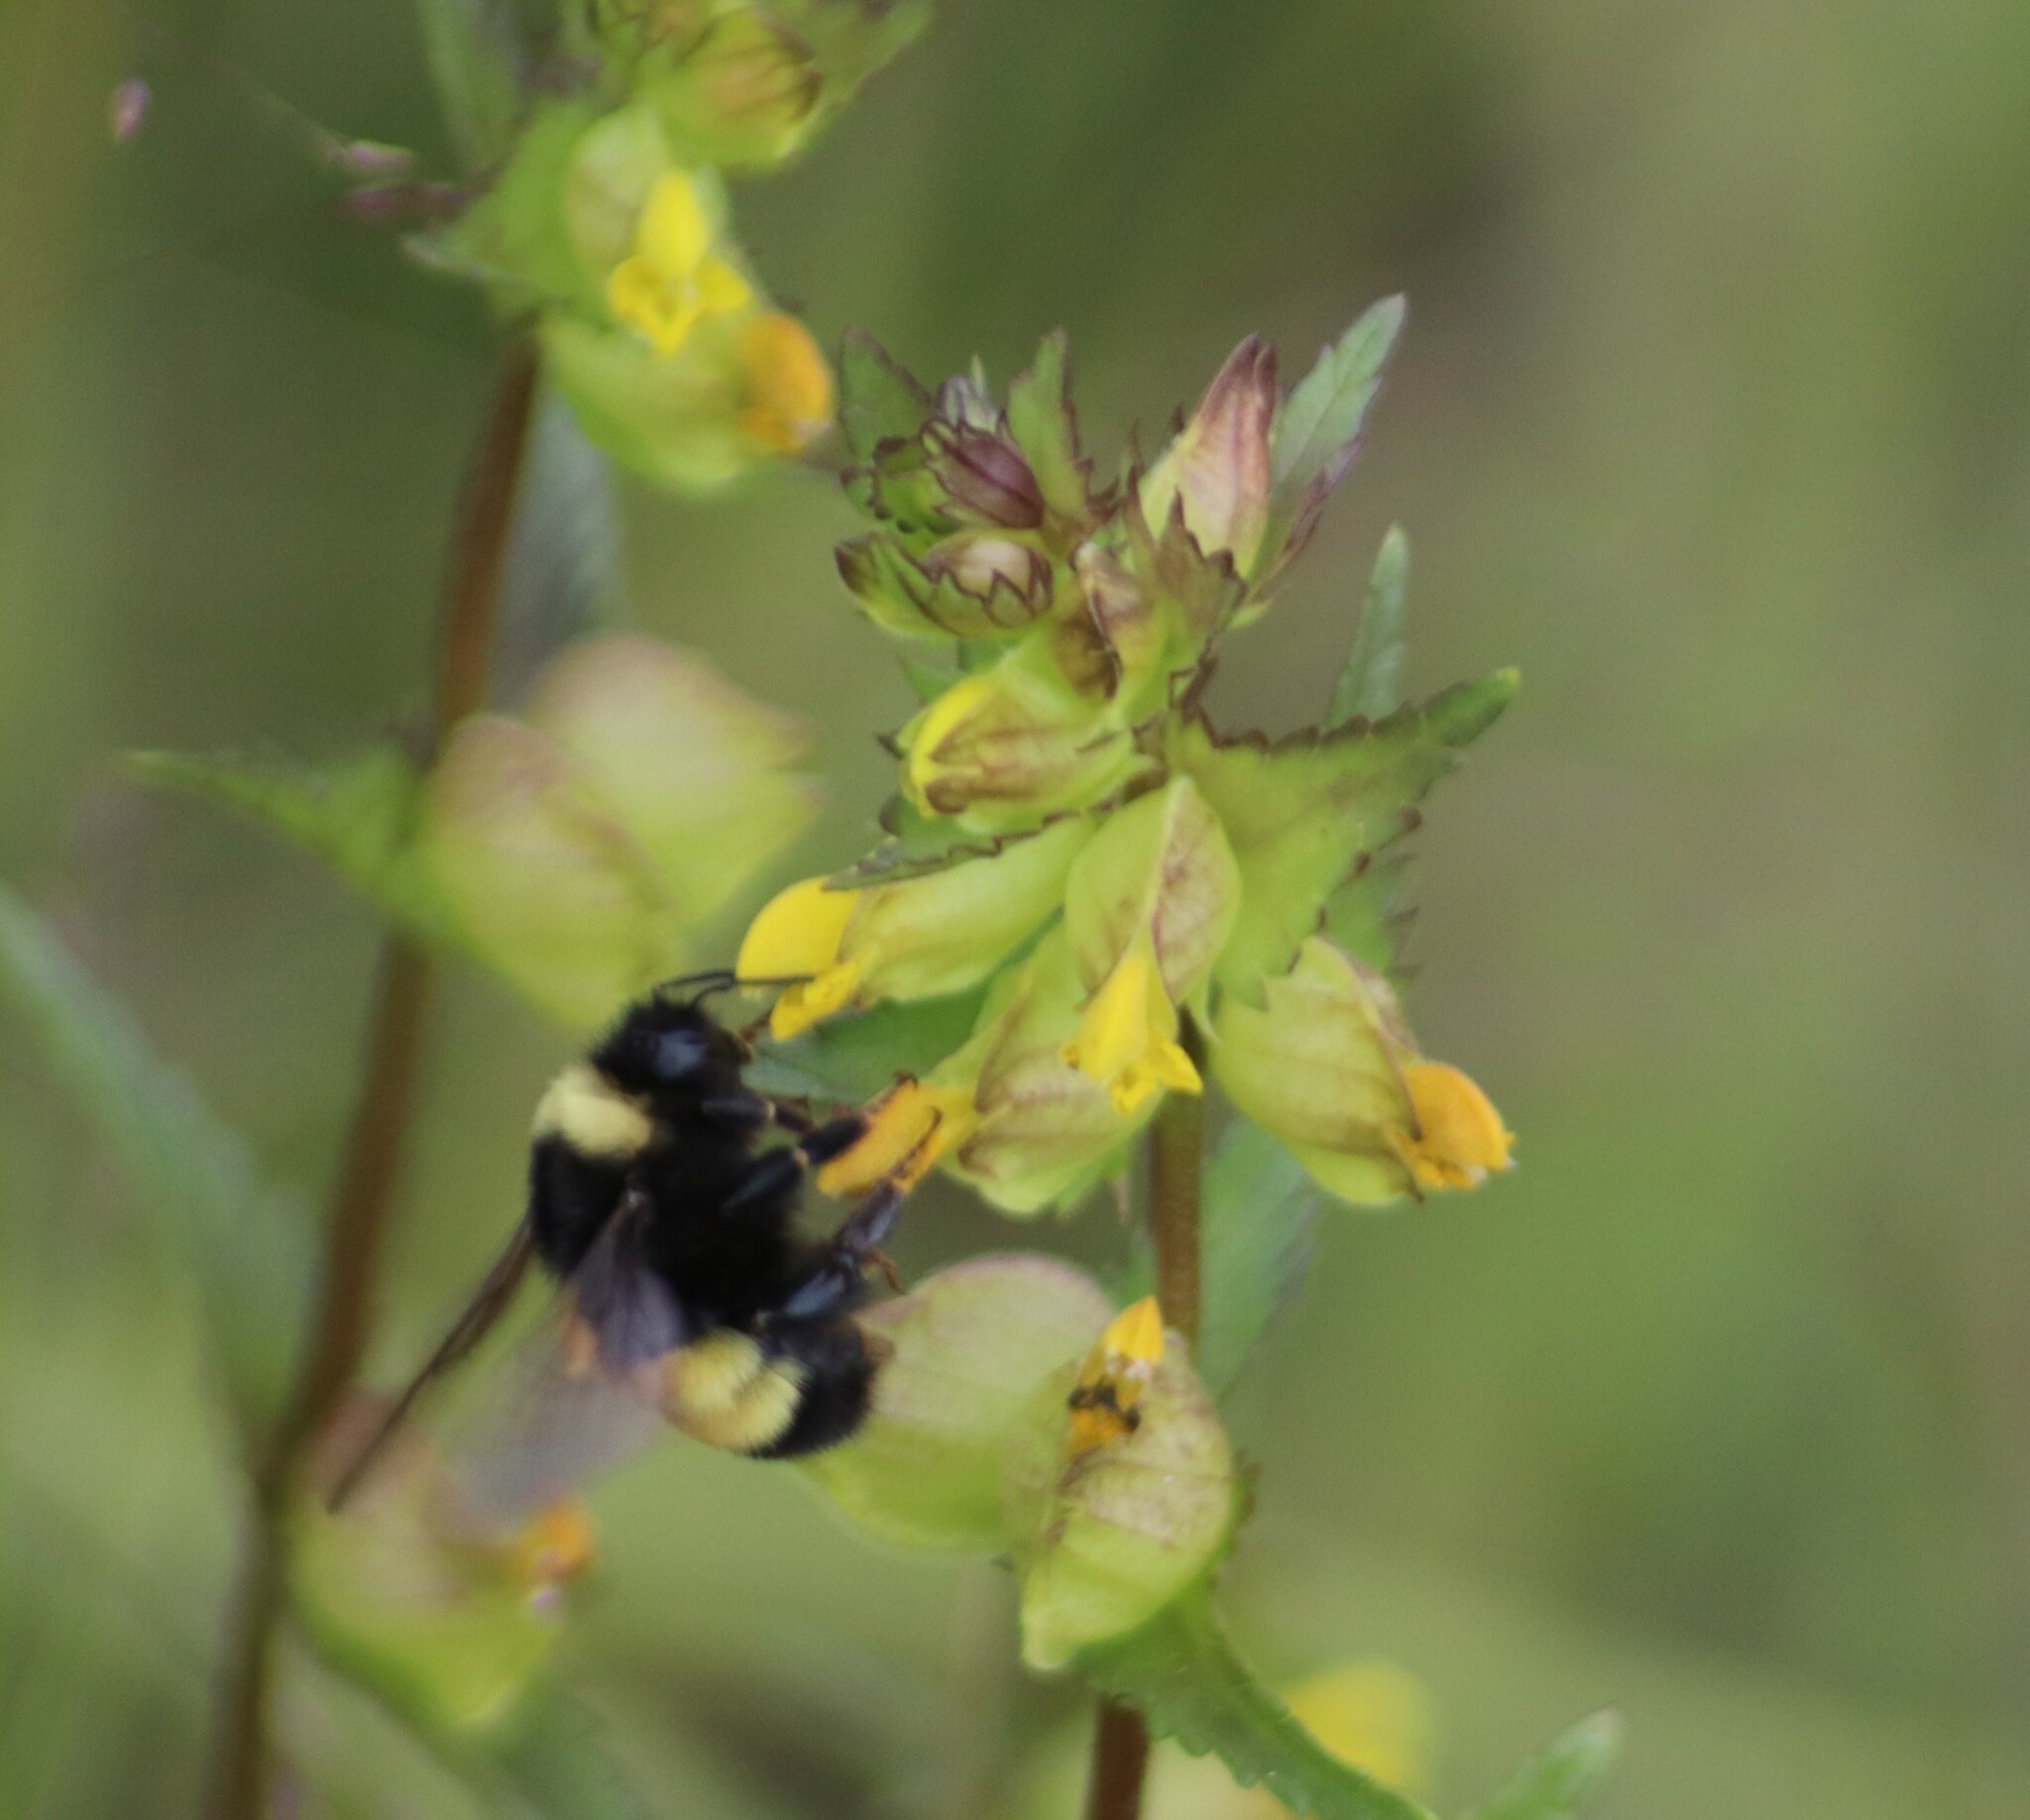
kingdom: Animalia
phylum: Arthropoda
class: Insecta
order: Hymenoptera
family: Apidae
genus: Bombus
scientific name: Bombus terricola
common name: Yellow-banded bumble bee
